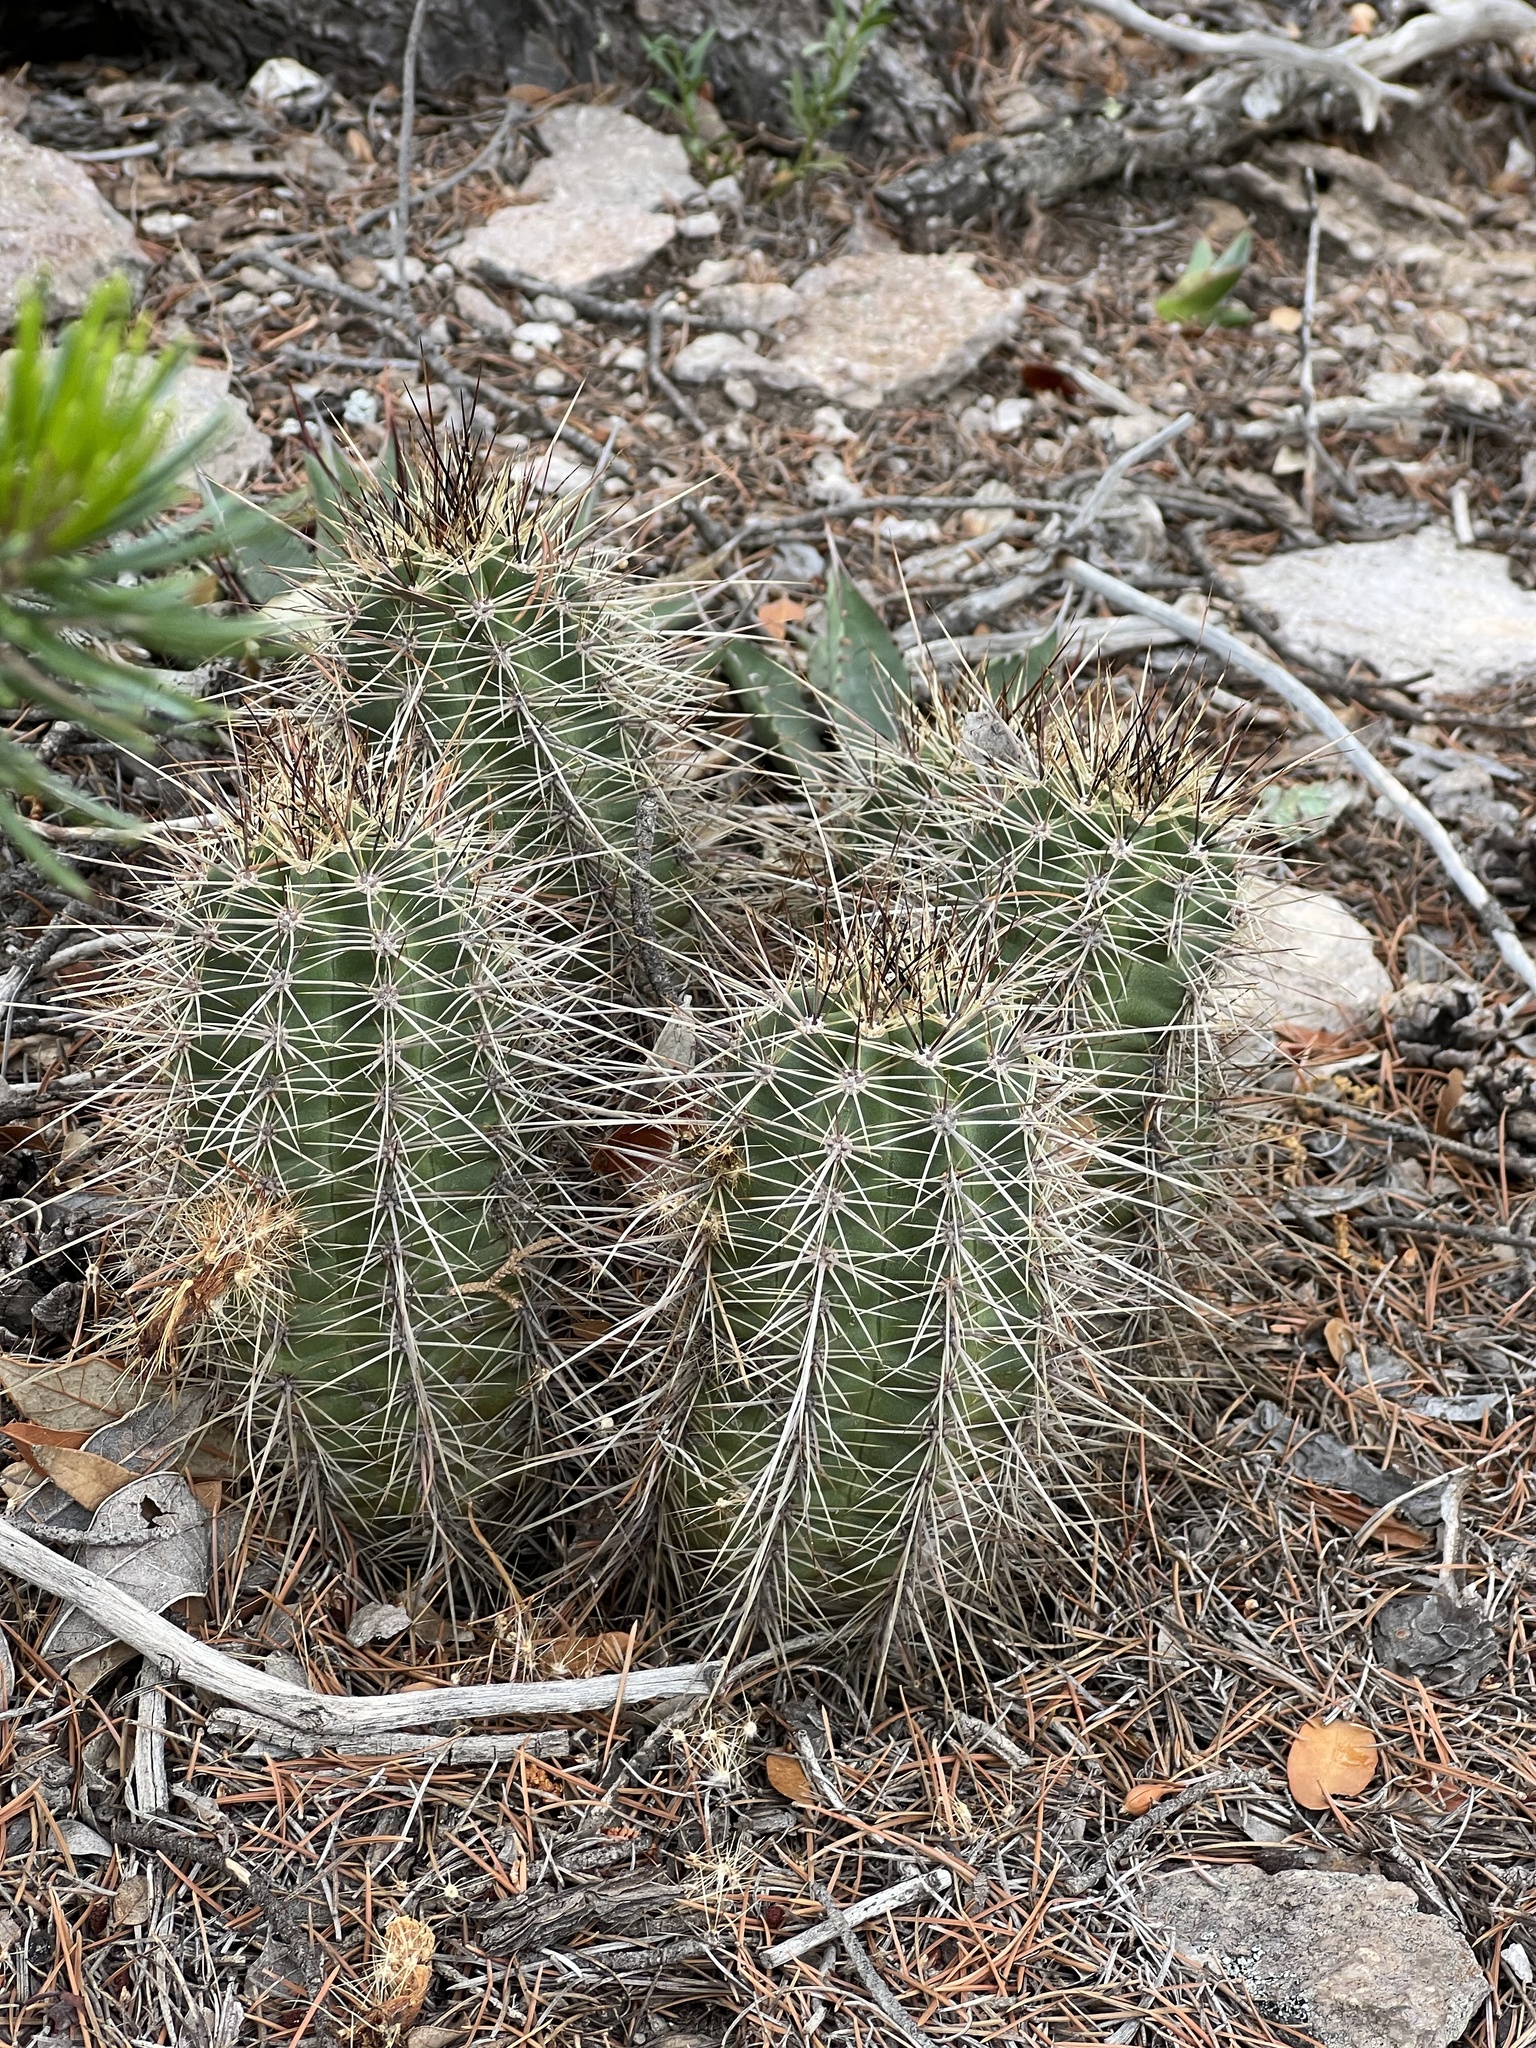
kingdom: Plantae
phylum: Tracheophyta
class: Magnoliopsida
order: Caryophyllales
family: Cactaceae
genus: Echinocereus
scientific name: Echinocereus coccineus
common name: Scarlet hedgehog cactus
